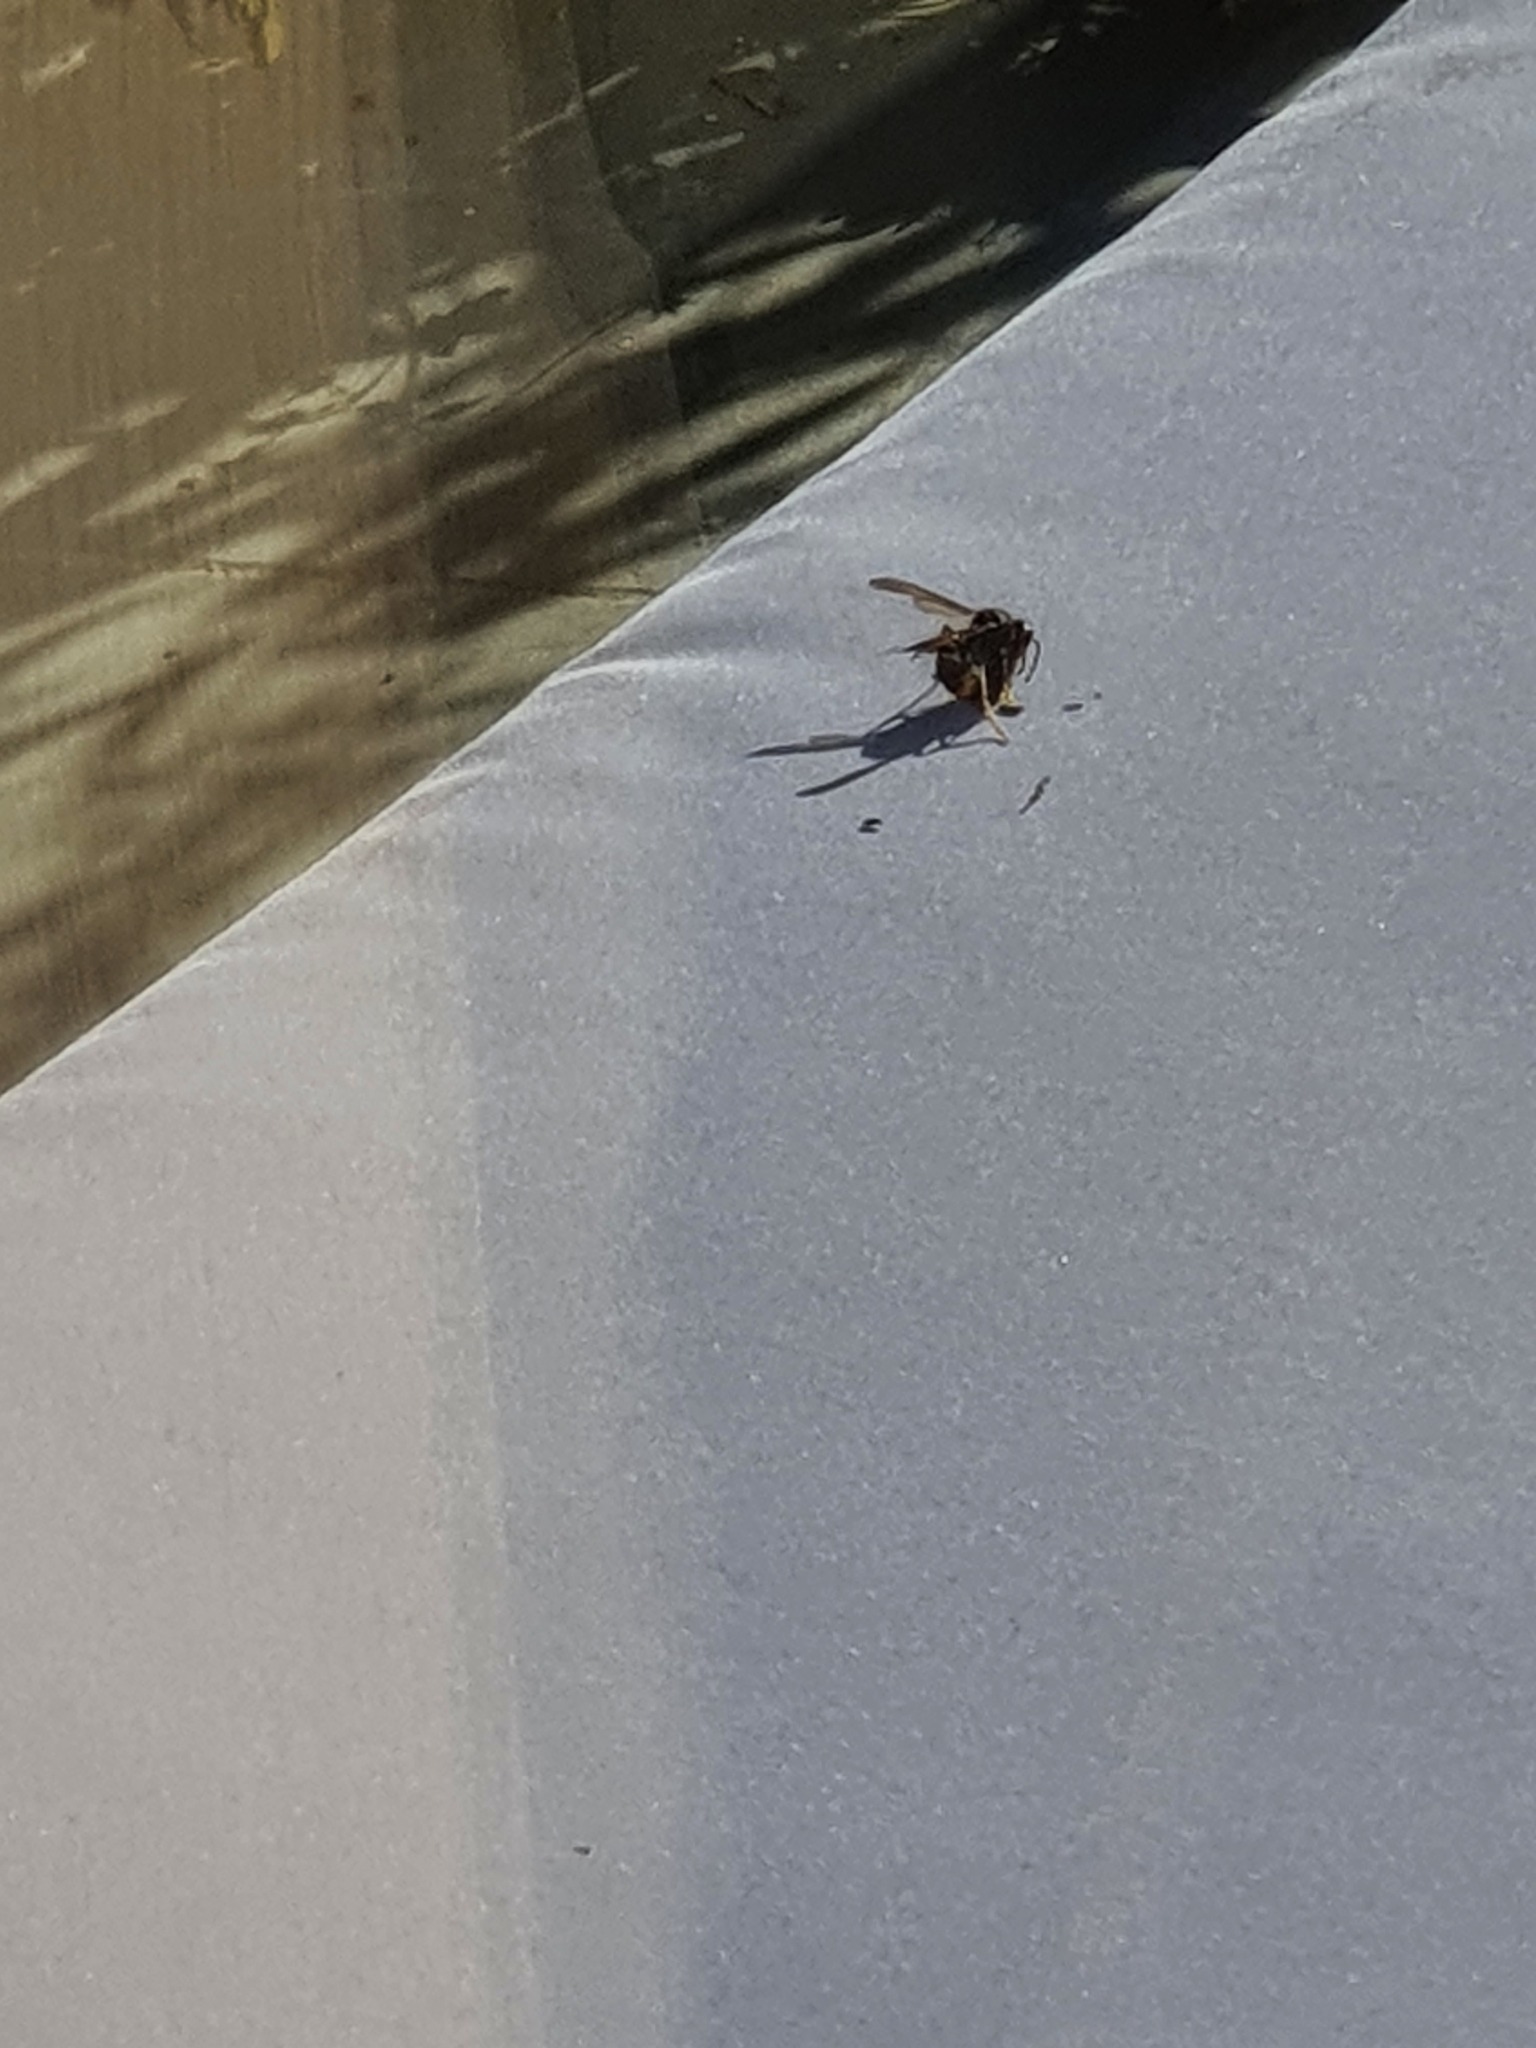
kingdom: Animalia
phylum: Arthropoda
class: Insecta
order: Hymenoptera
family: Vespidae
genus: Vespa
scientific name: Vespa velutina
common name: Asian hornet
